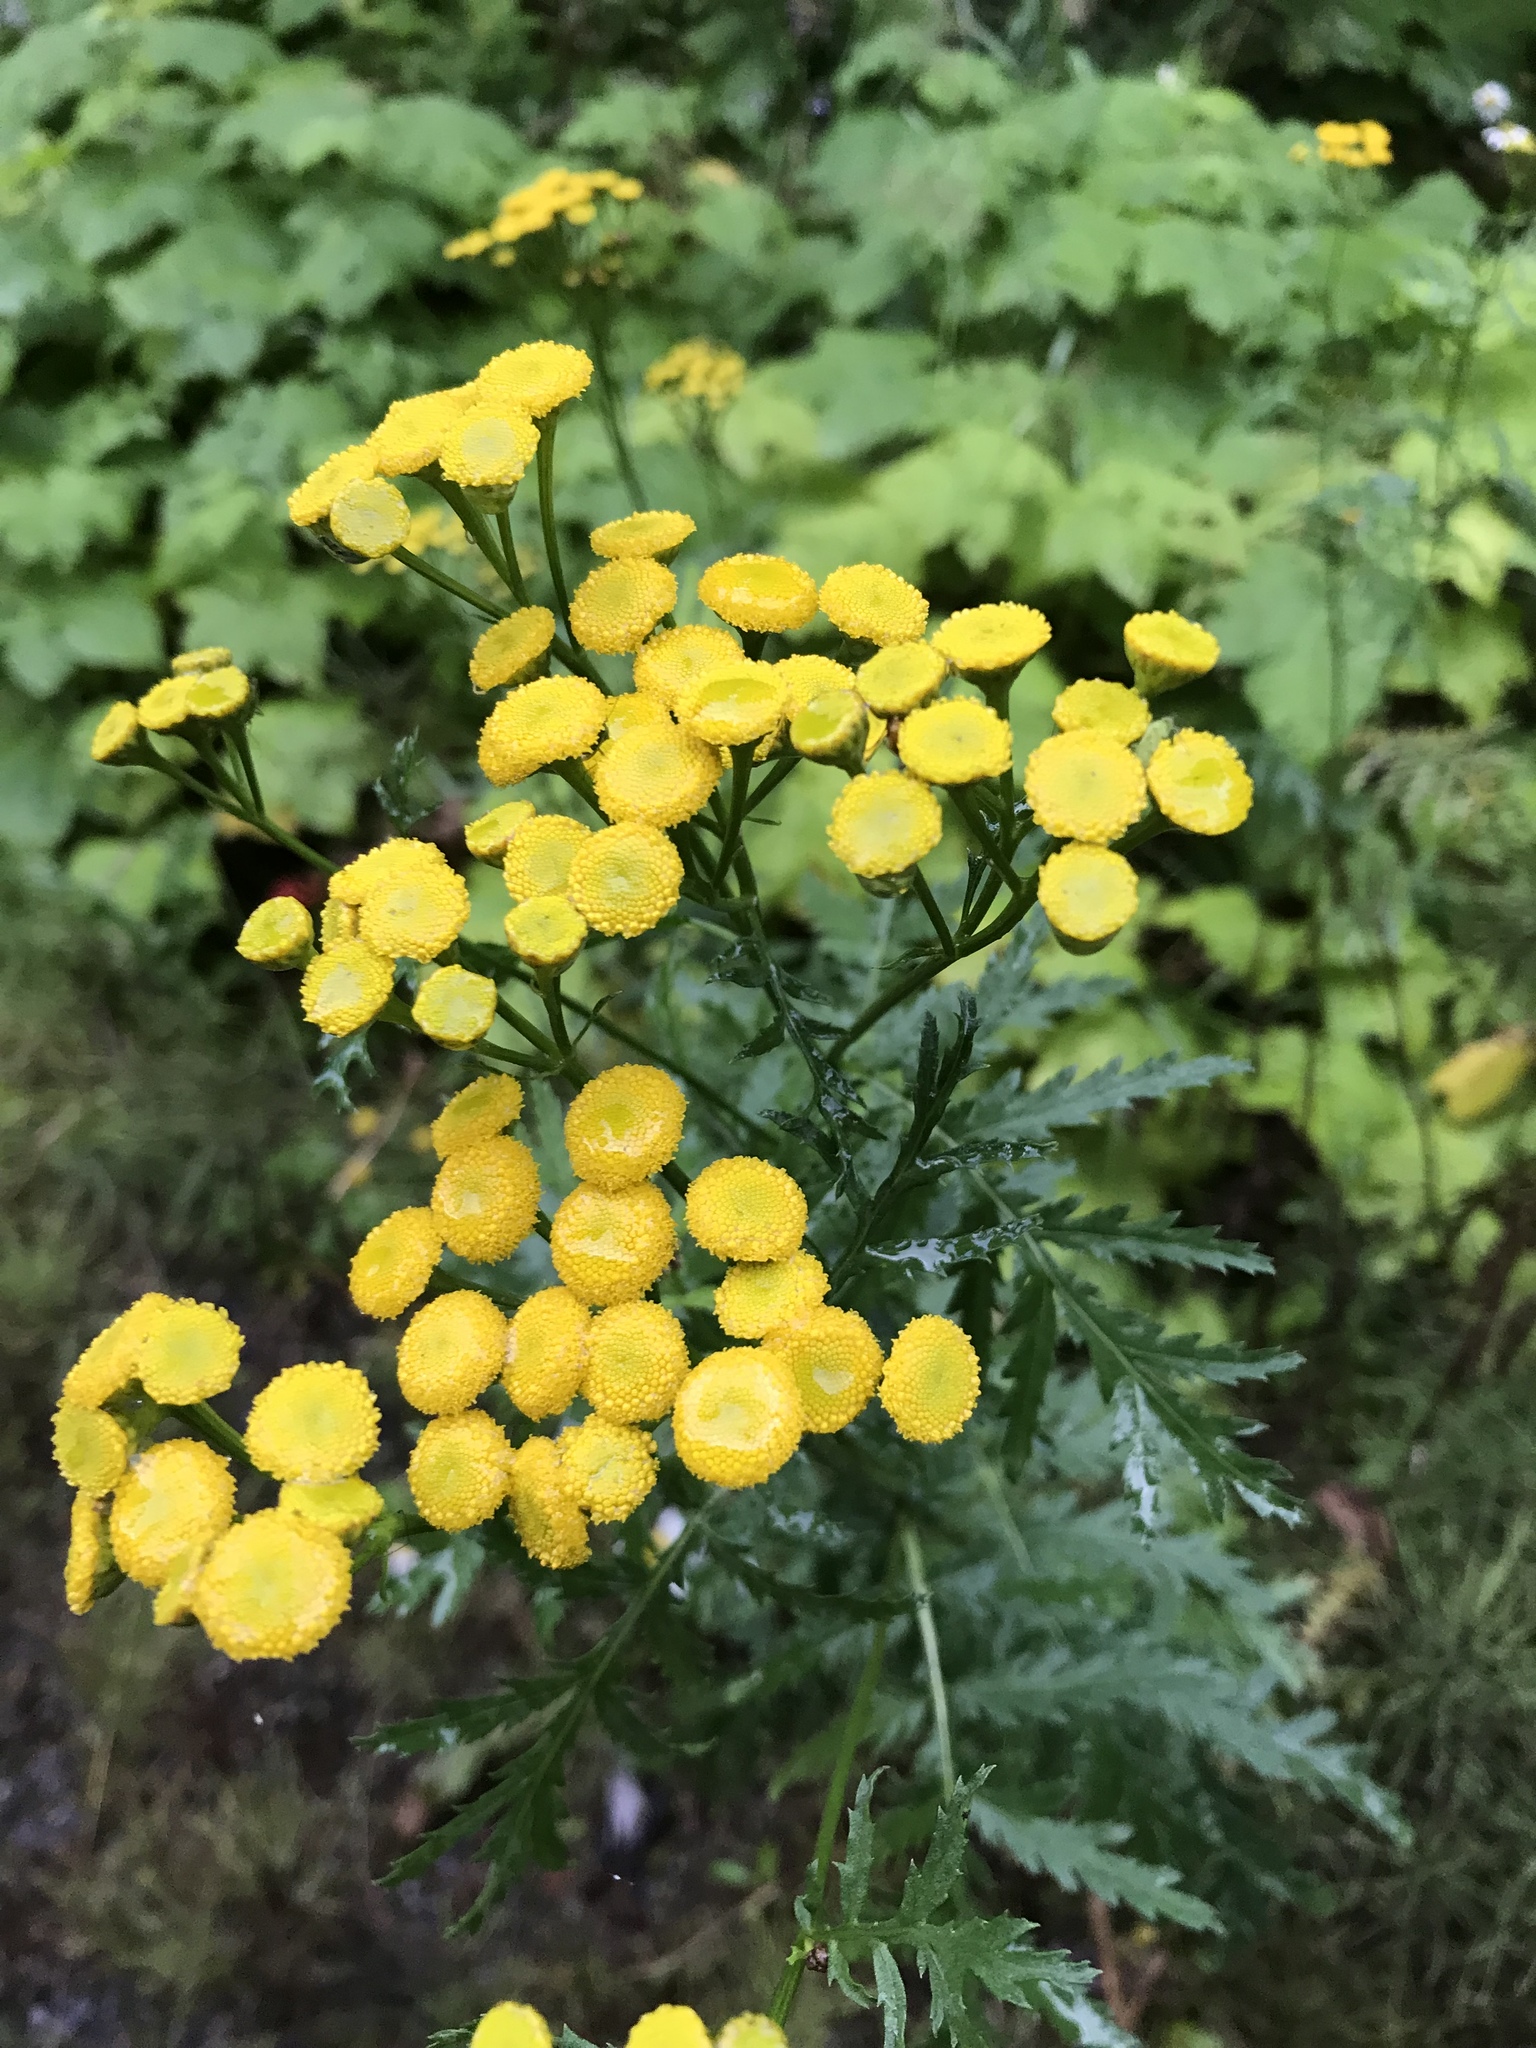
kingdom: Plantae
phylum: Tracheophyta
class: Magnoliopsida
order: Asterales
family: Asteraceae
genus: Tanacetum
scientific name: Tanacetum vulgare
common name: Common tansy
